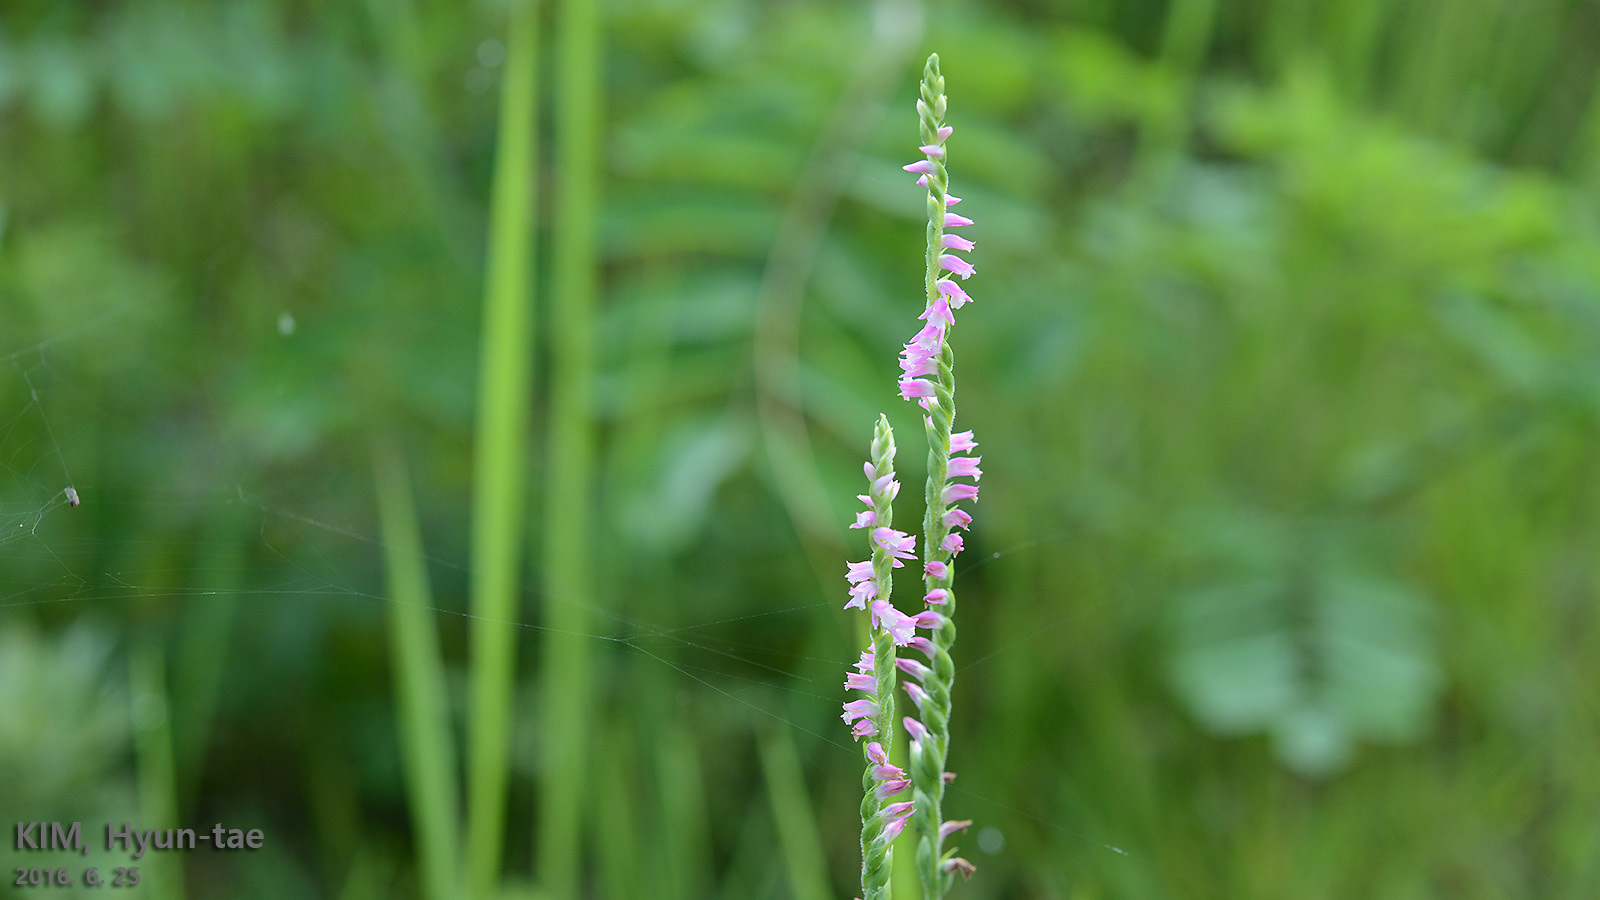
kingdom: Plantae
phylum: Tracheophyta
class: Liliopsida
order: Asparagales
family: Orchidaceae
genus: Spiranthes
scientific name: Spiranthes australis
